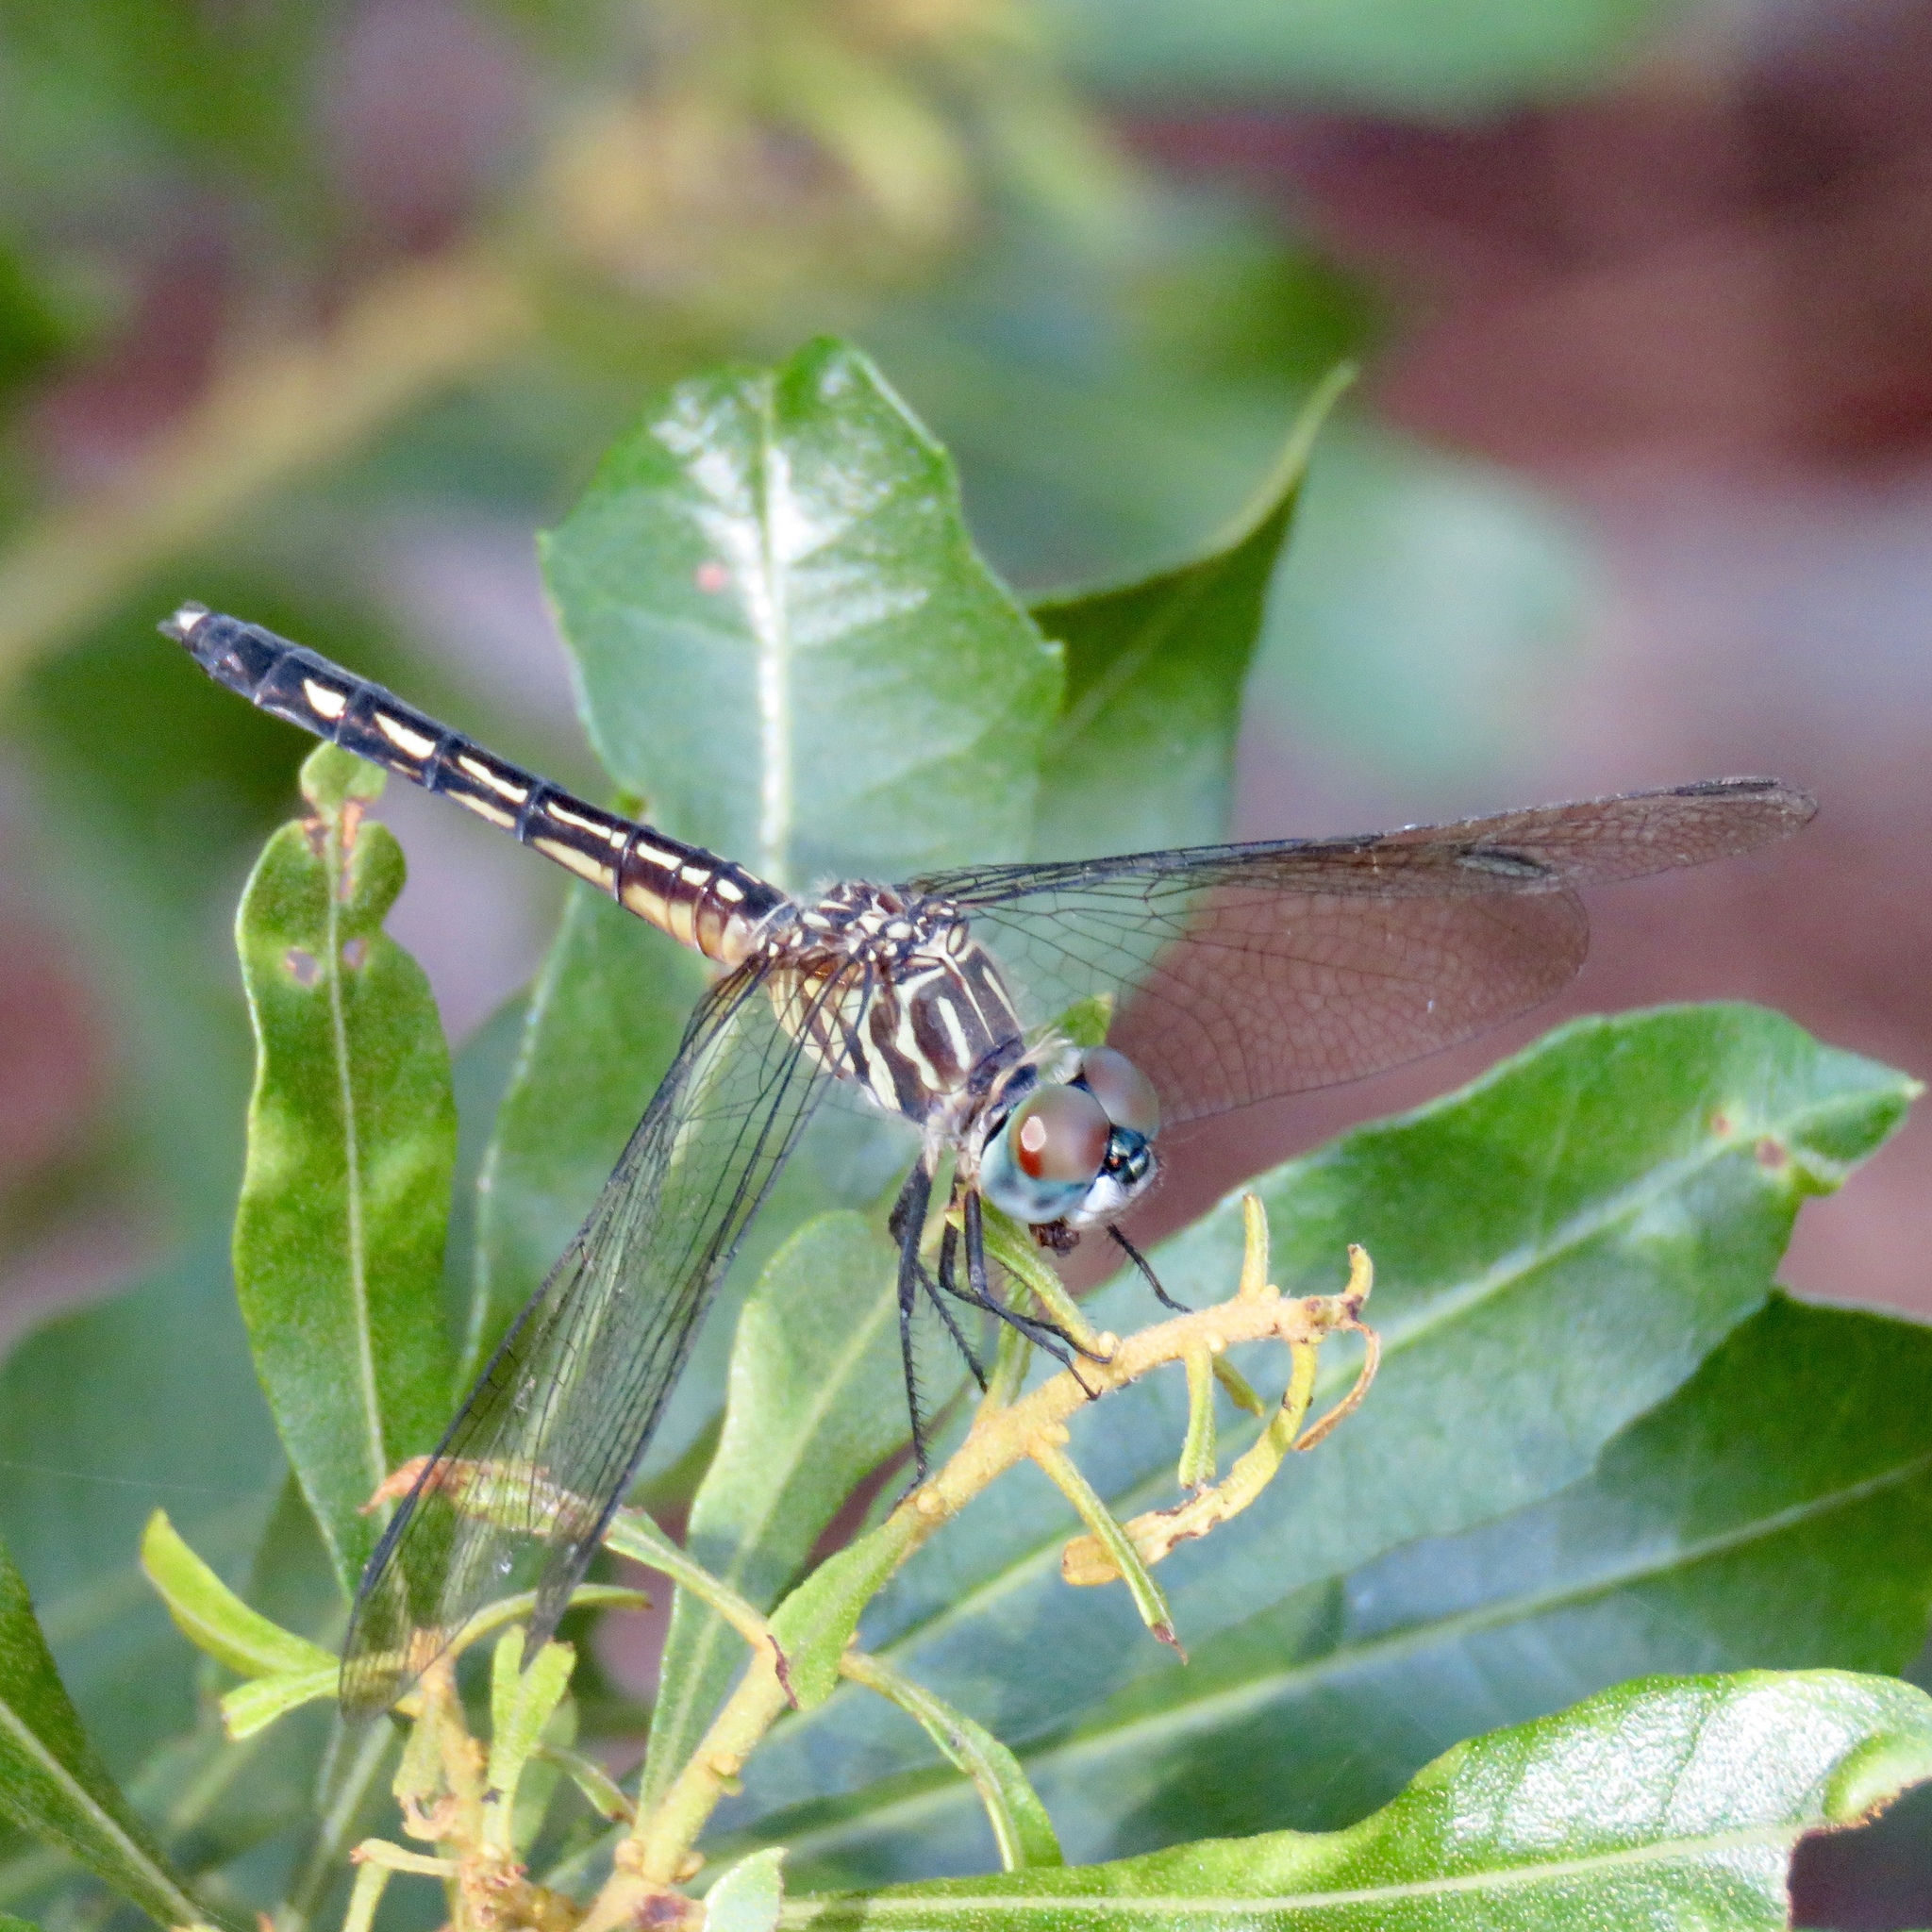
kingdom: Animalia
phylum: Arthropoda
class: Insecta
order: Odonata
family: Libellulidae
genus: Pachydiplax
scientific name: Pachydiplax longipennis
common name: Blue dasher
